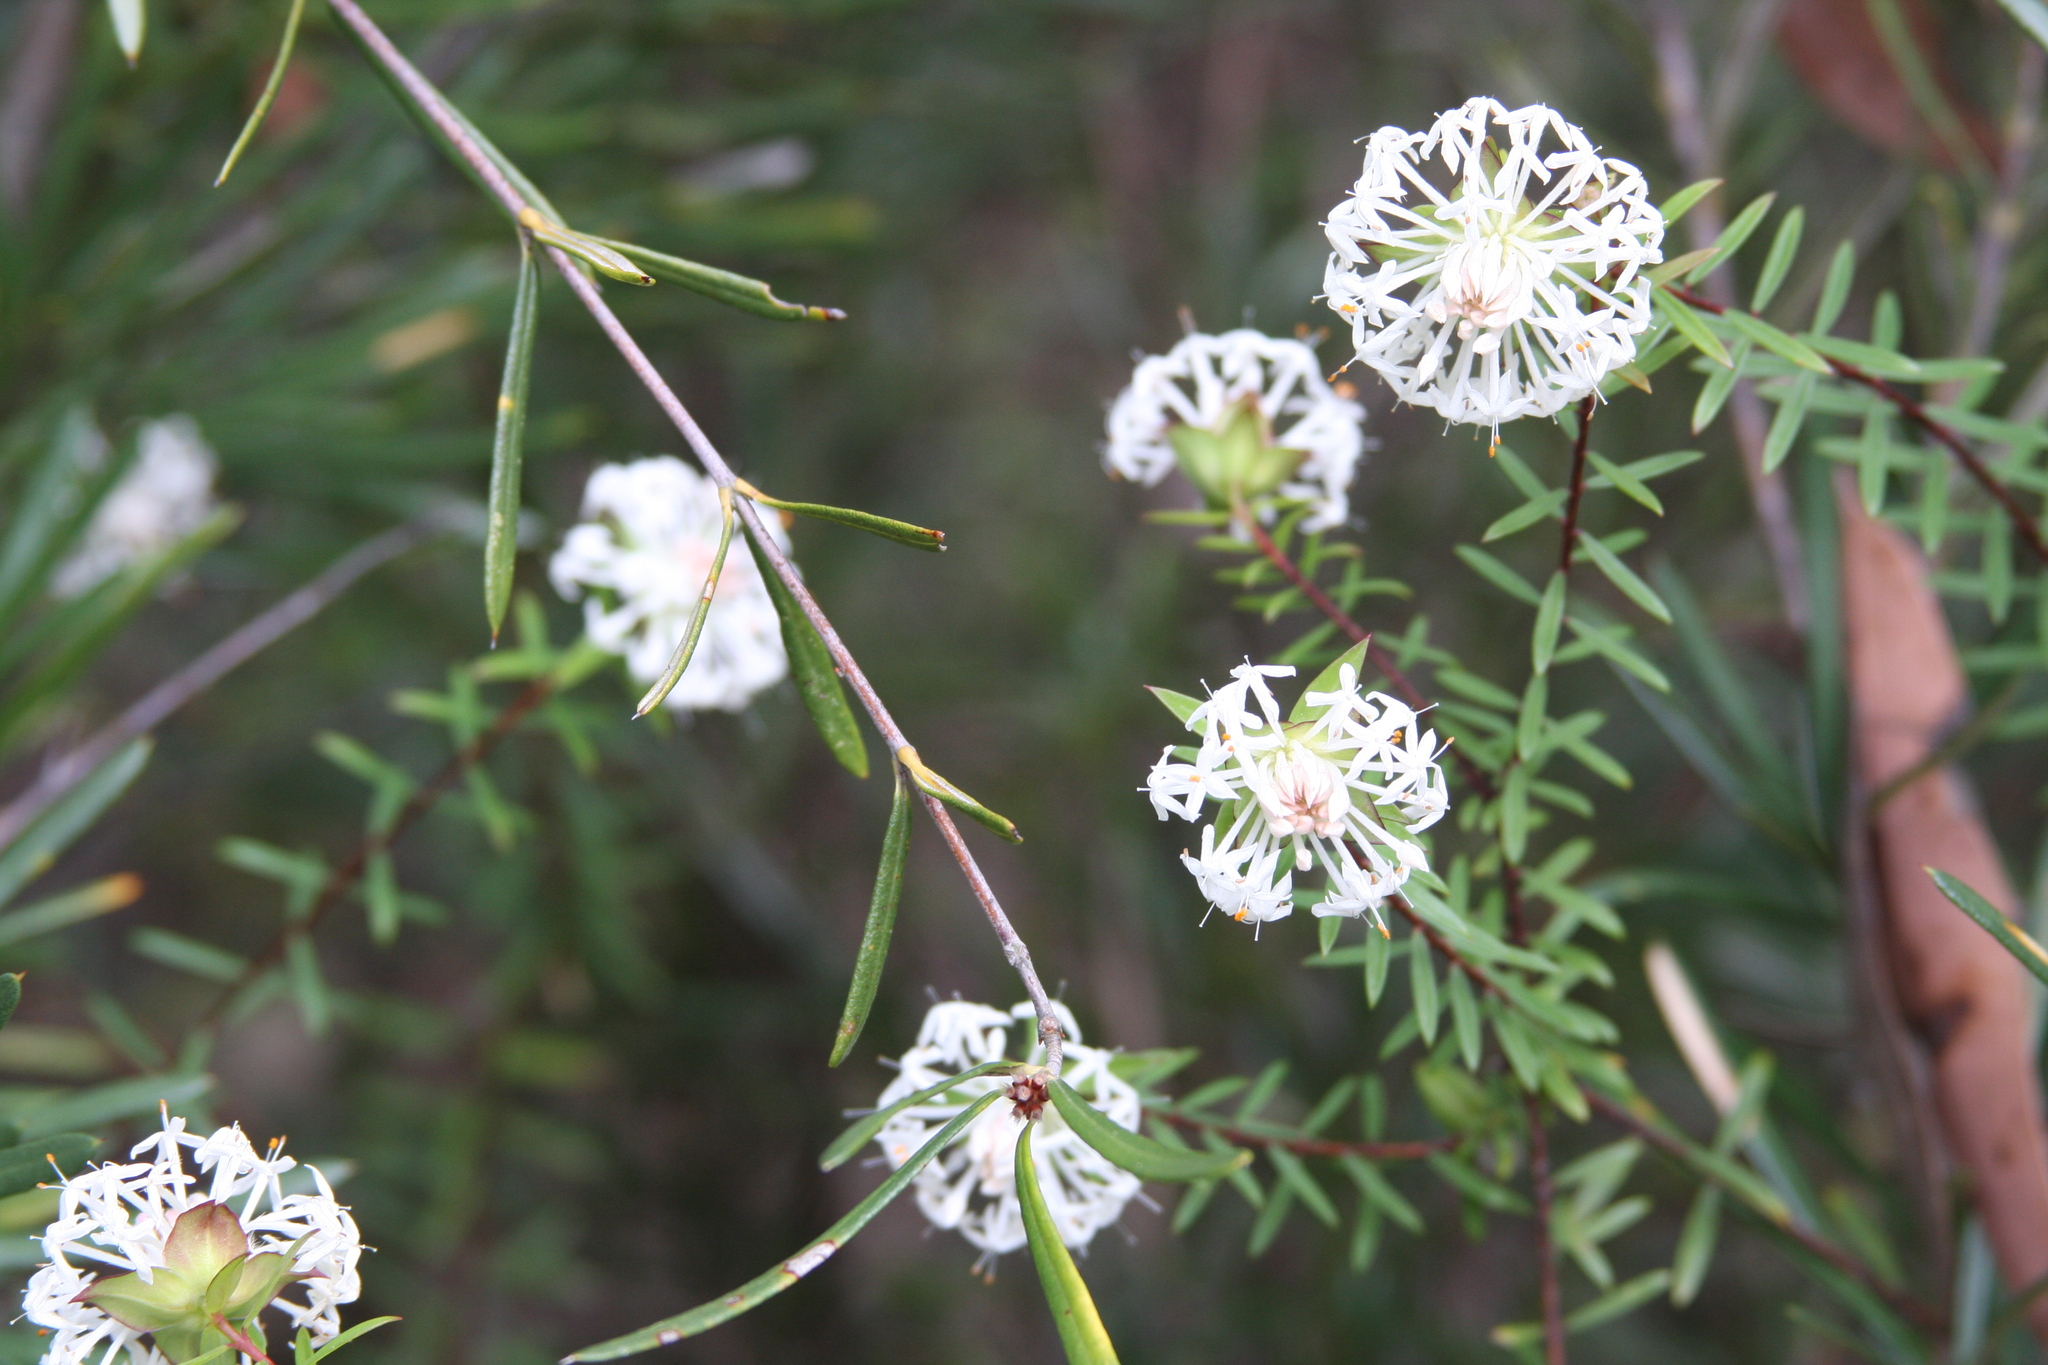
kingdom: Plantae
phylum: Tracheophyta
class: Magnoliopsida
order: Malvales
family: Thymelaeaceae
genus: Pimelea
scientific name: Pimelea linifolia
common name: Queen-of-the-bush
